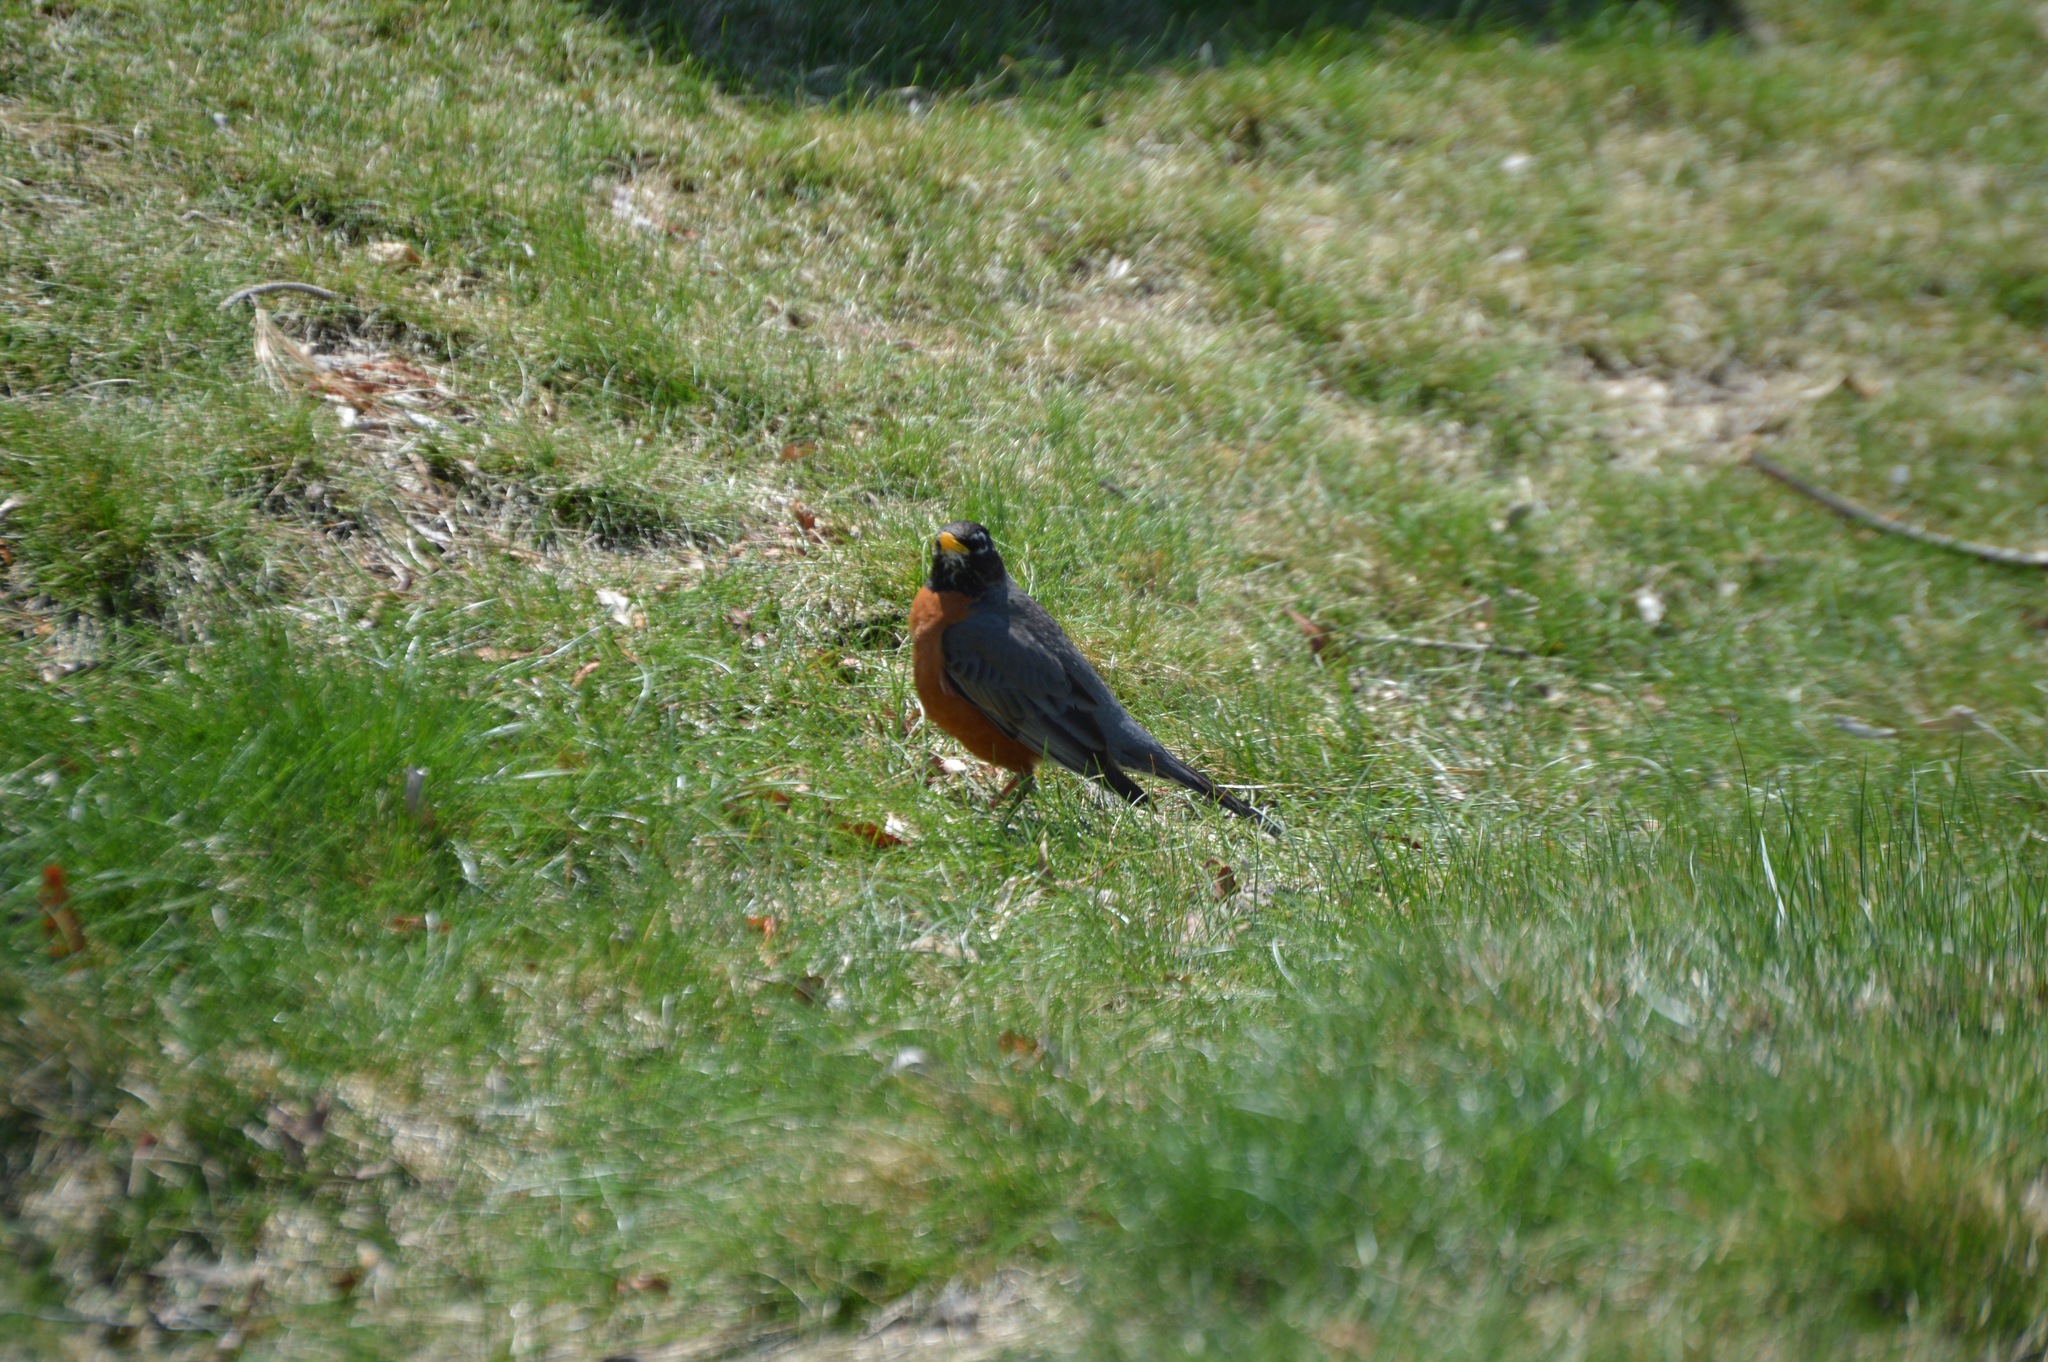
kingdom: Animalia
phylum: Chordata
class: Aves
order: Passeriformes
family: Turdidae
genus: Turdus
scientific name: Turdus migratorius
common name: American robin
